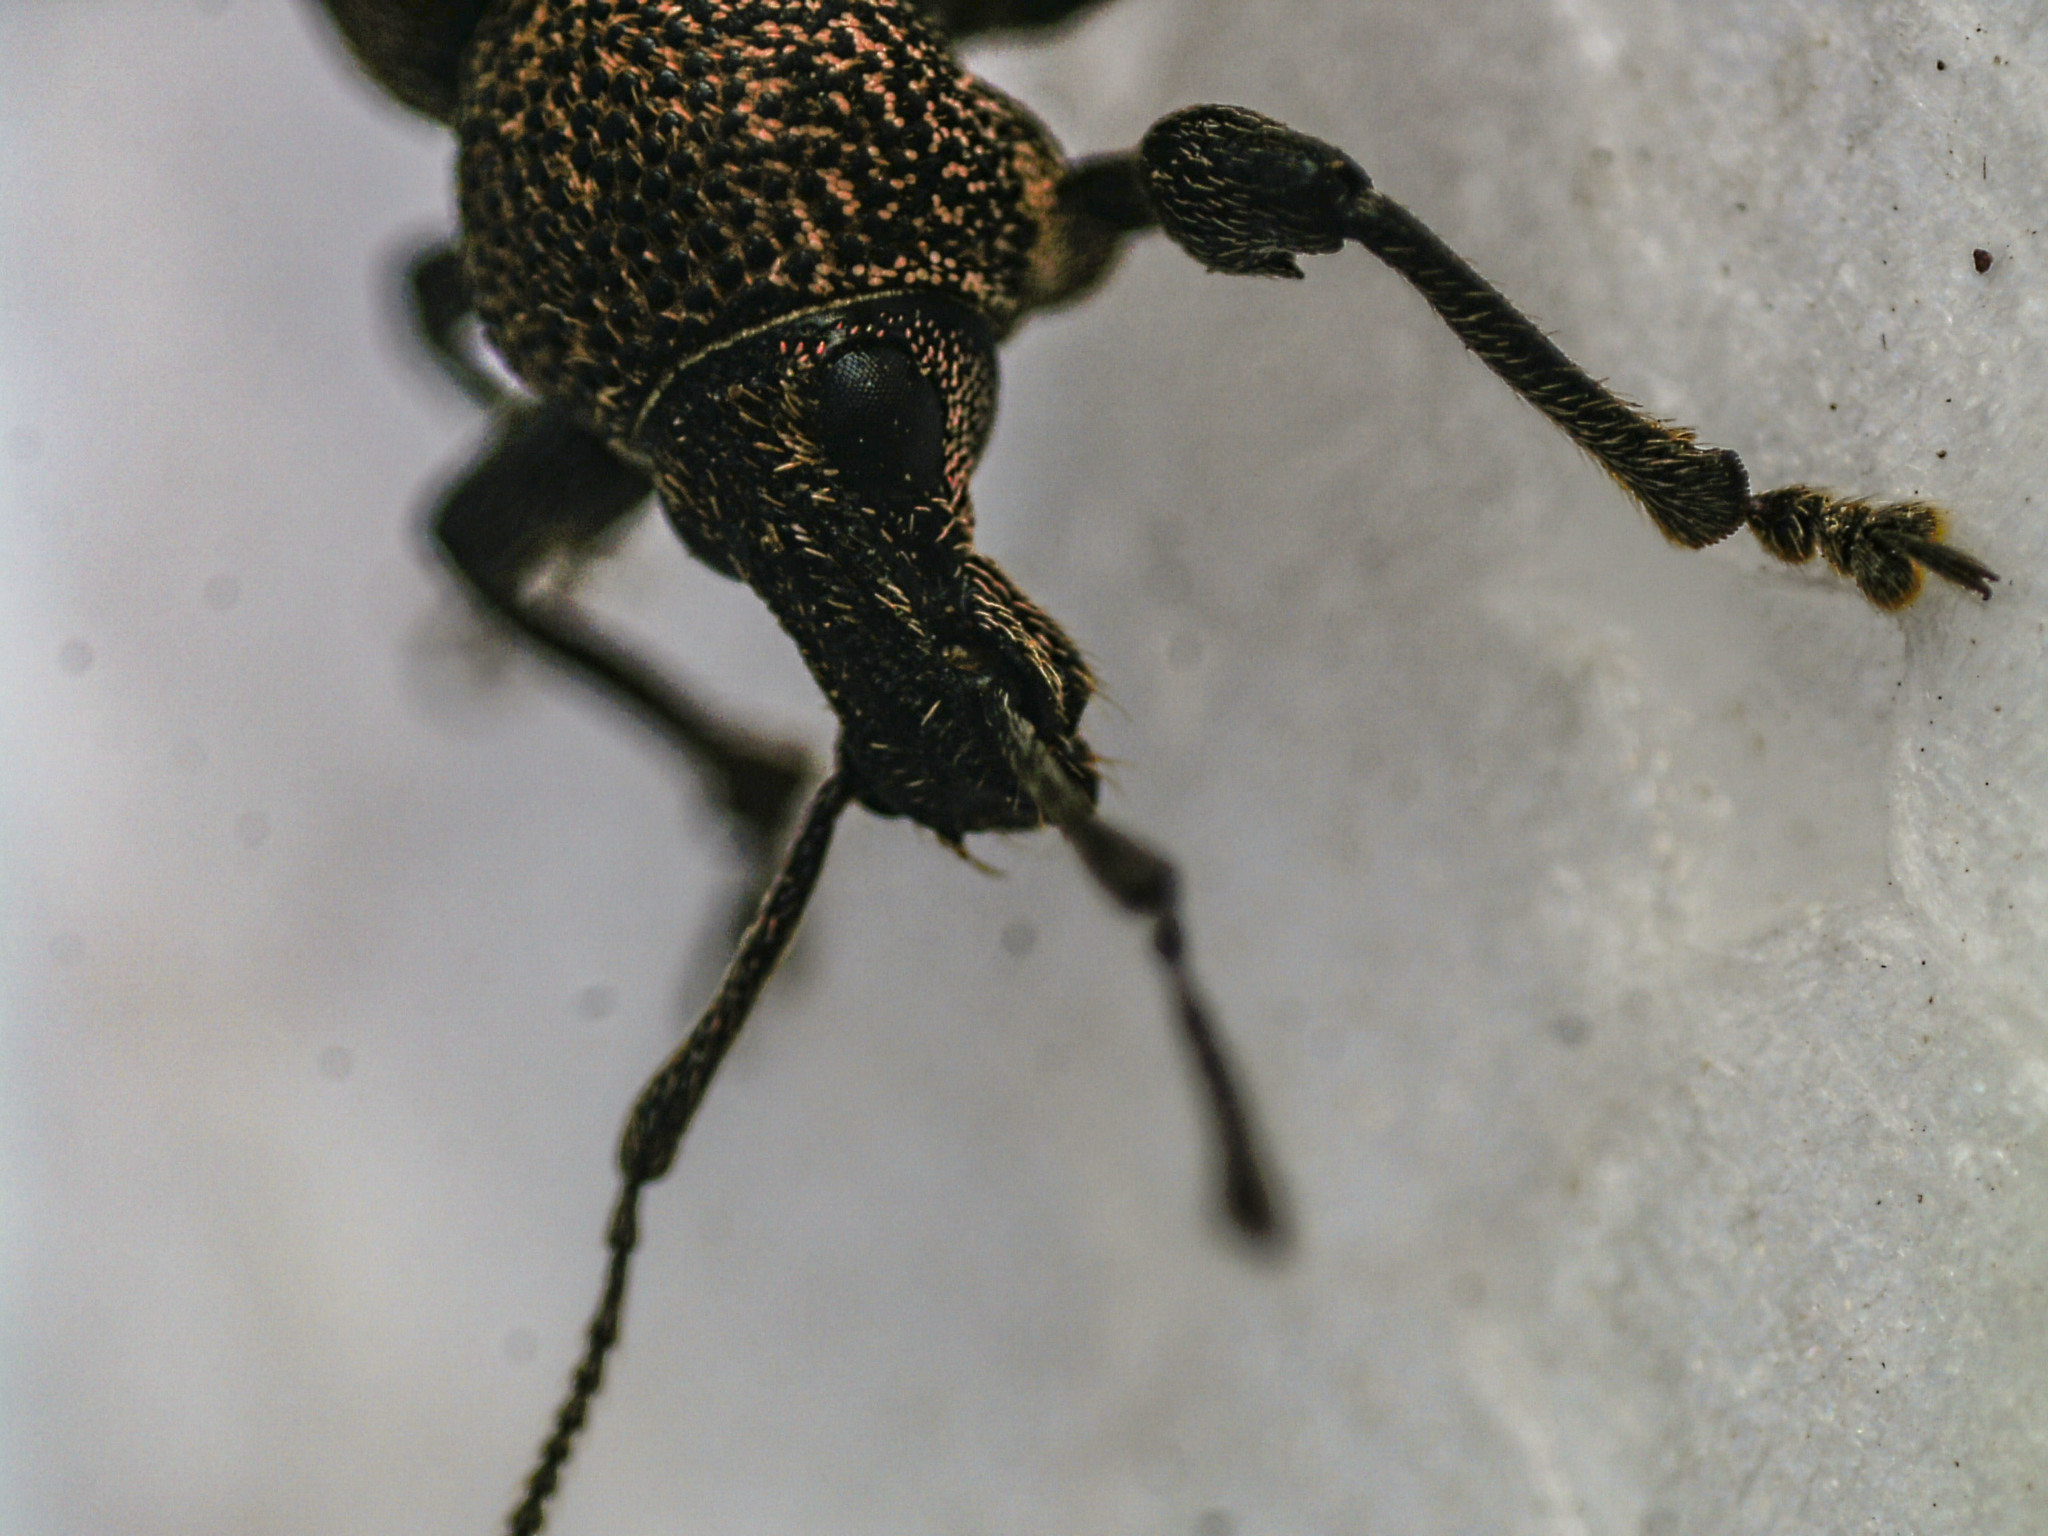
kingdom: Animalia
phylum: Arthropoda
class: Insecta
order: Coleoptera
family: Curculionidae
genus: Otiorhynchus
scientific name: Otiorhynchus ligustici
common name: Weevil
